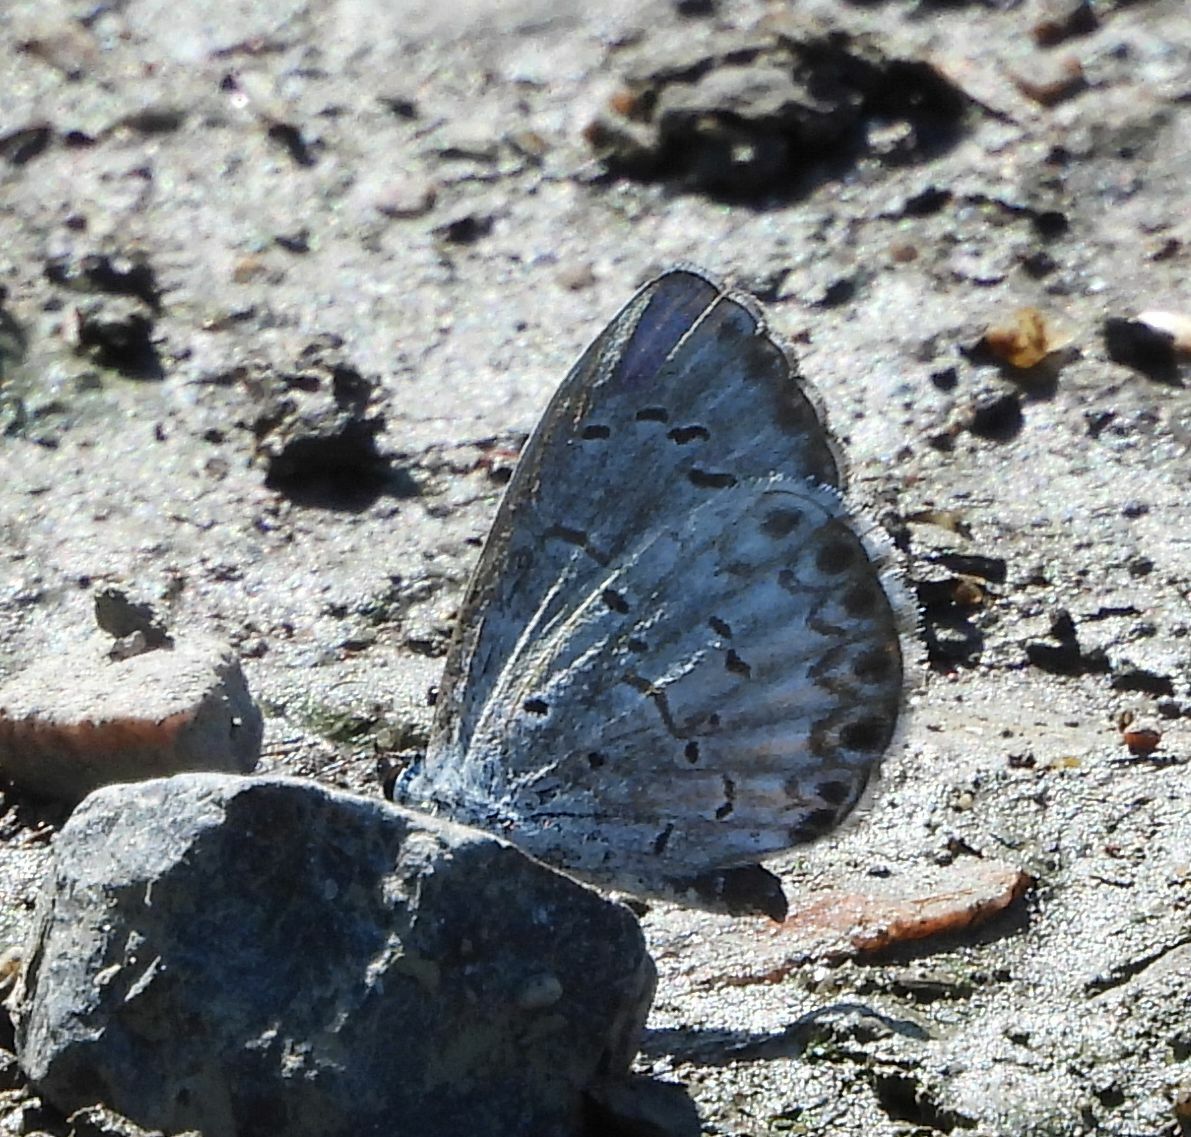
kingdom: Animalia
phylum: Arthropoda
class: Insecta
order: Lepidoptera
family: Lycaenidae
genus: Celastrina
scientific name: Celastrina lucia
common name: Lucia azure
